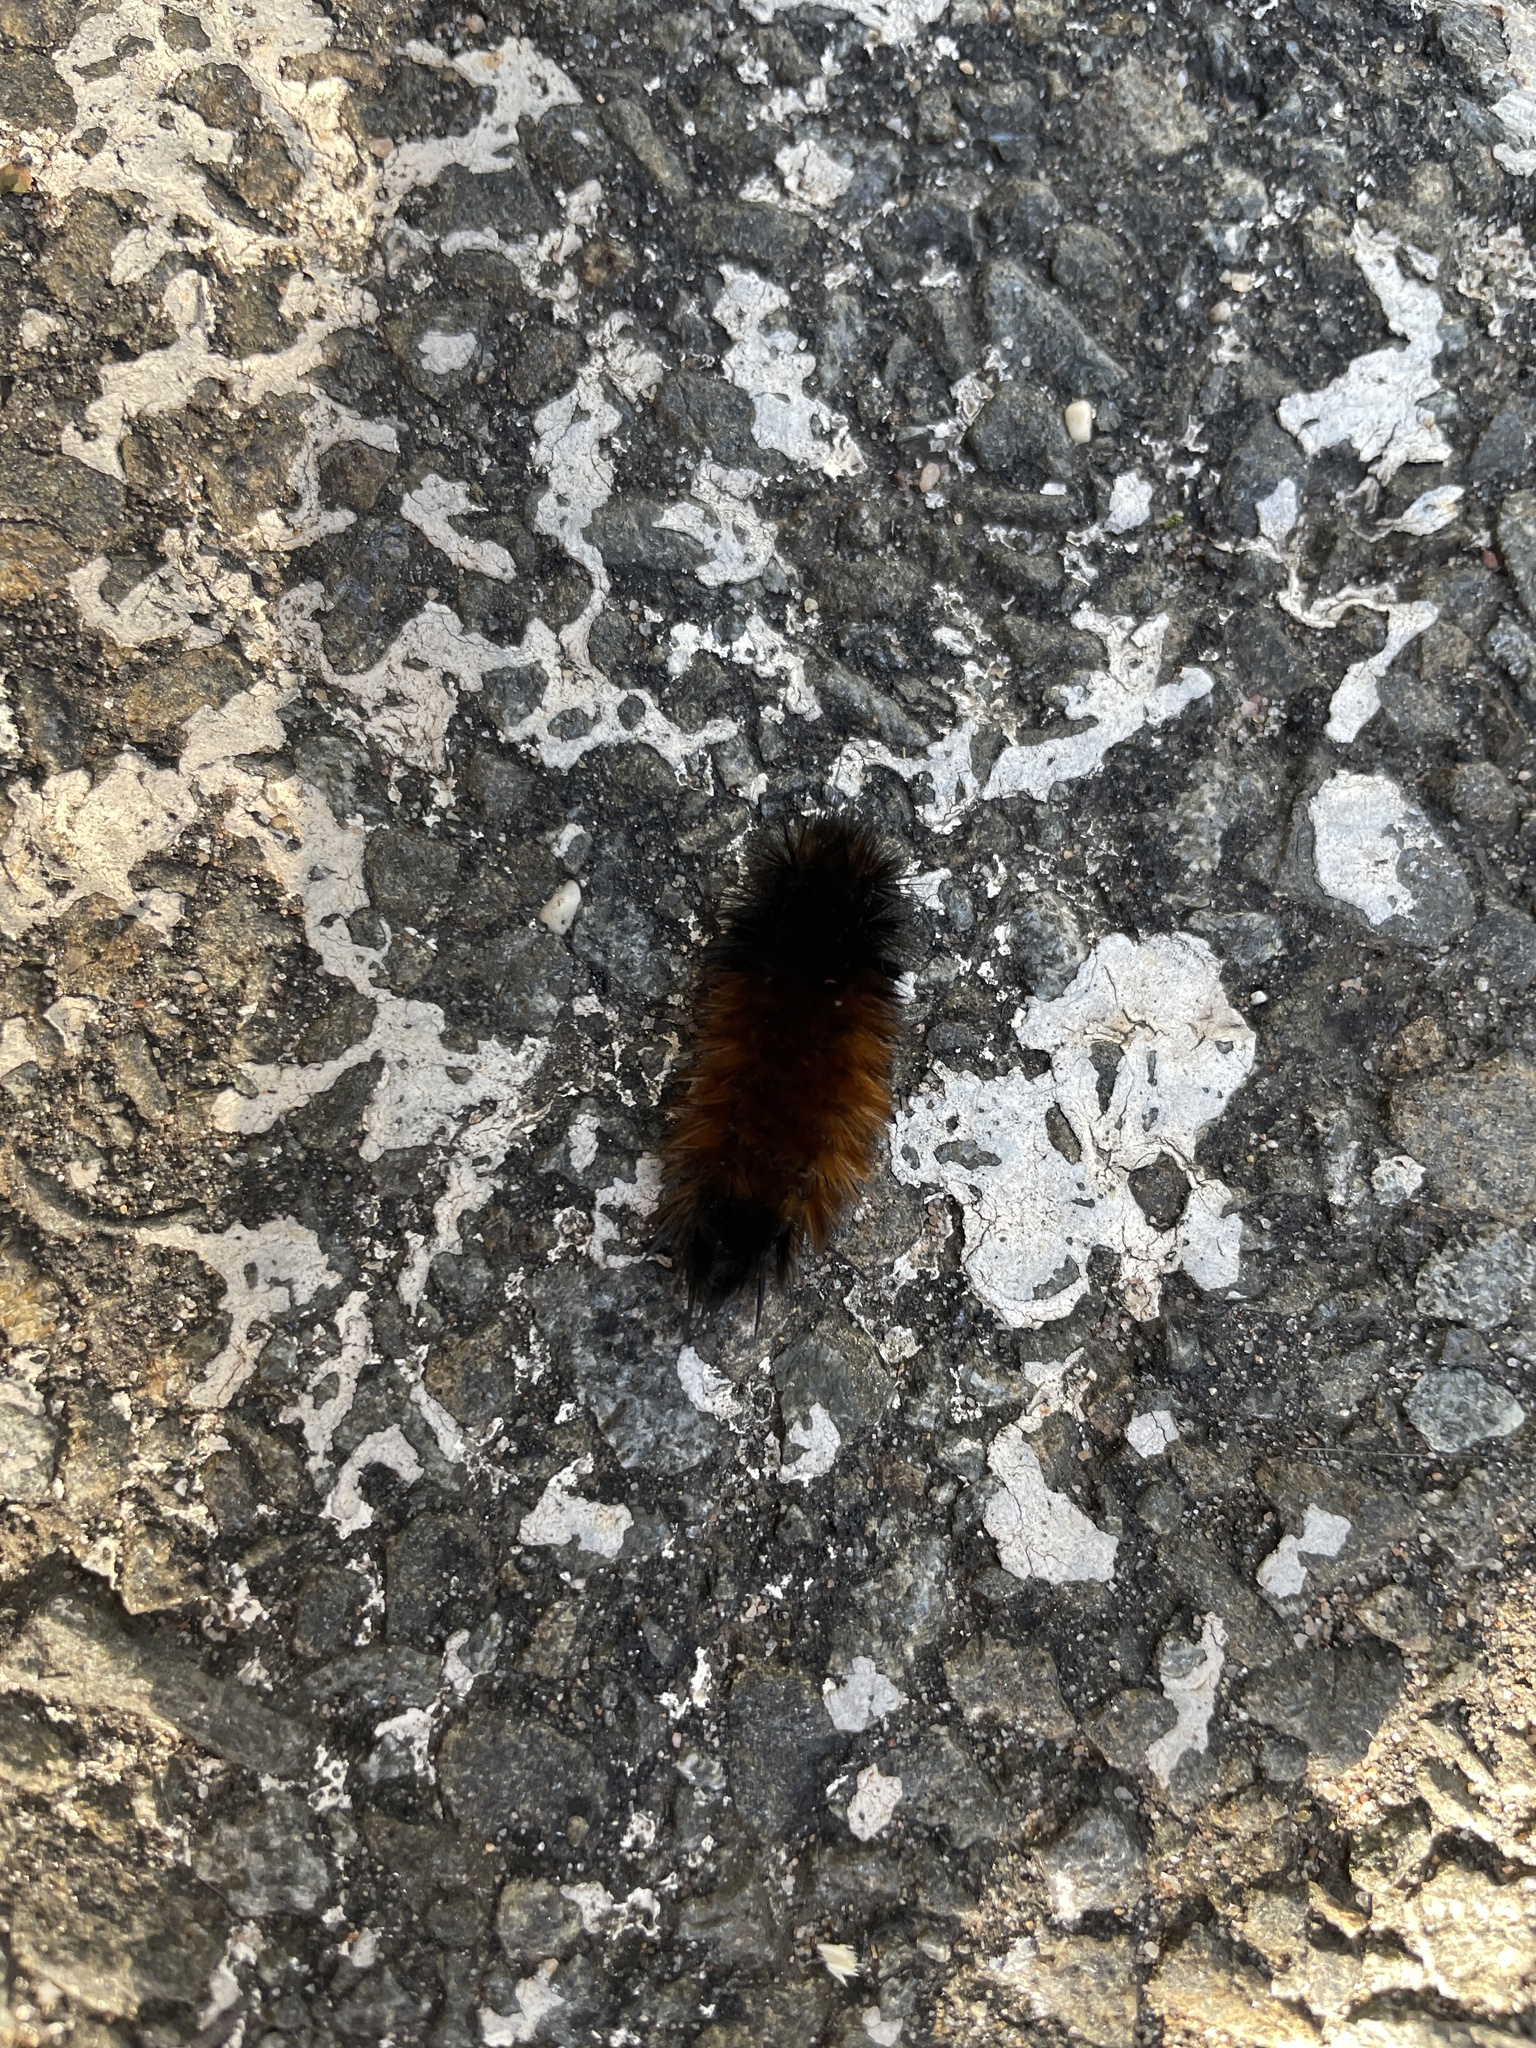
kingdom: Animalia
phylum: Arthropoda
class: Insecta
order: Lepidoptera
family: Erebidae
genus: Pyrrharctia
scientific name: Pyrrharctia isabella
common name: Isabella tiger moth
